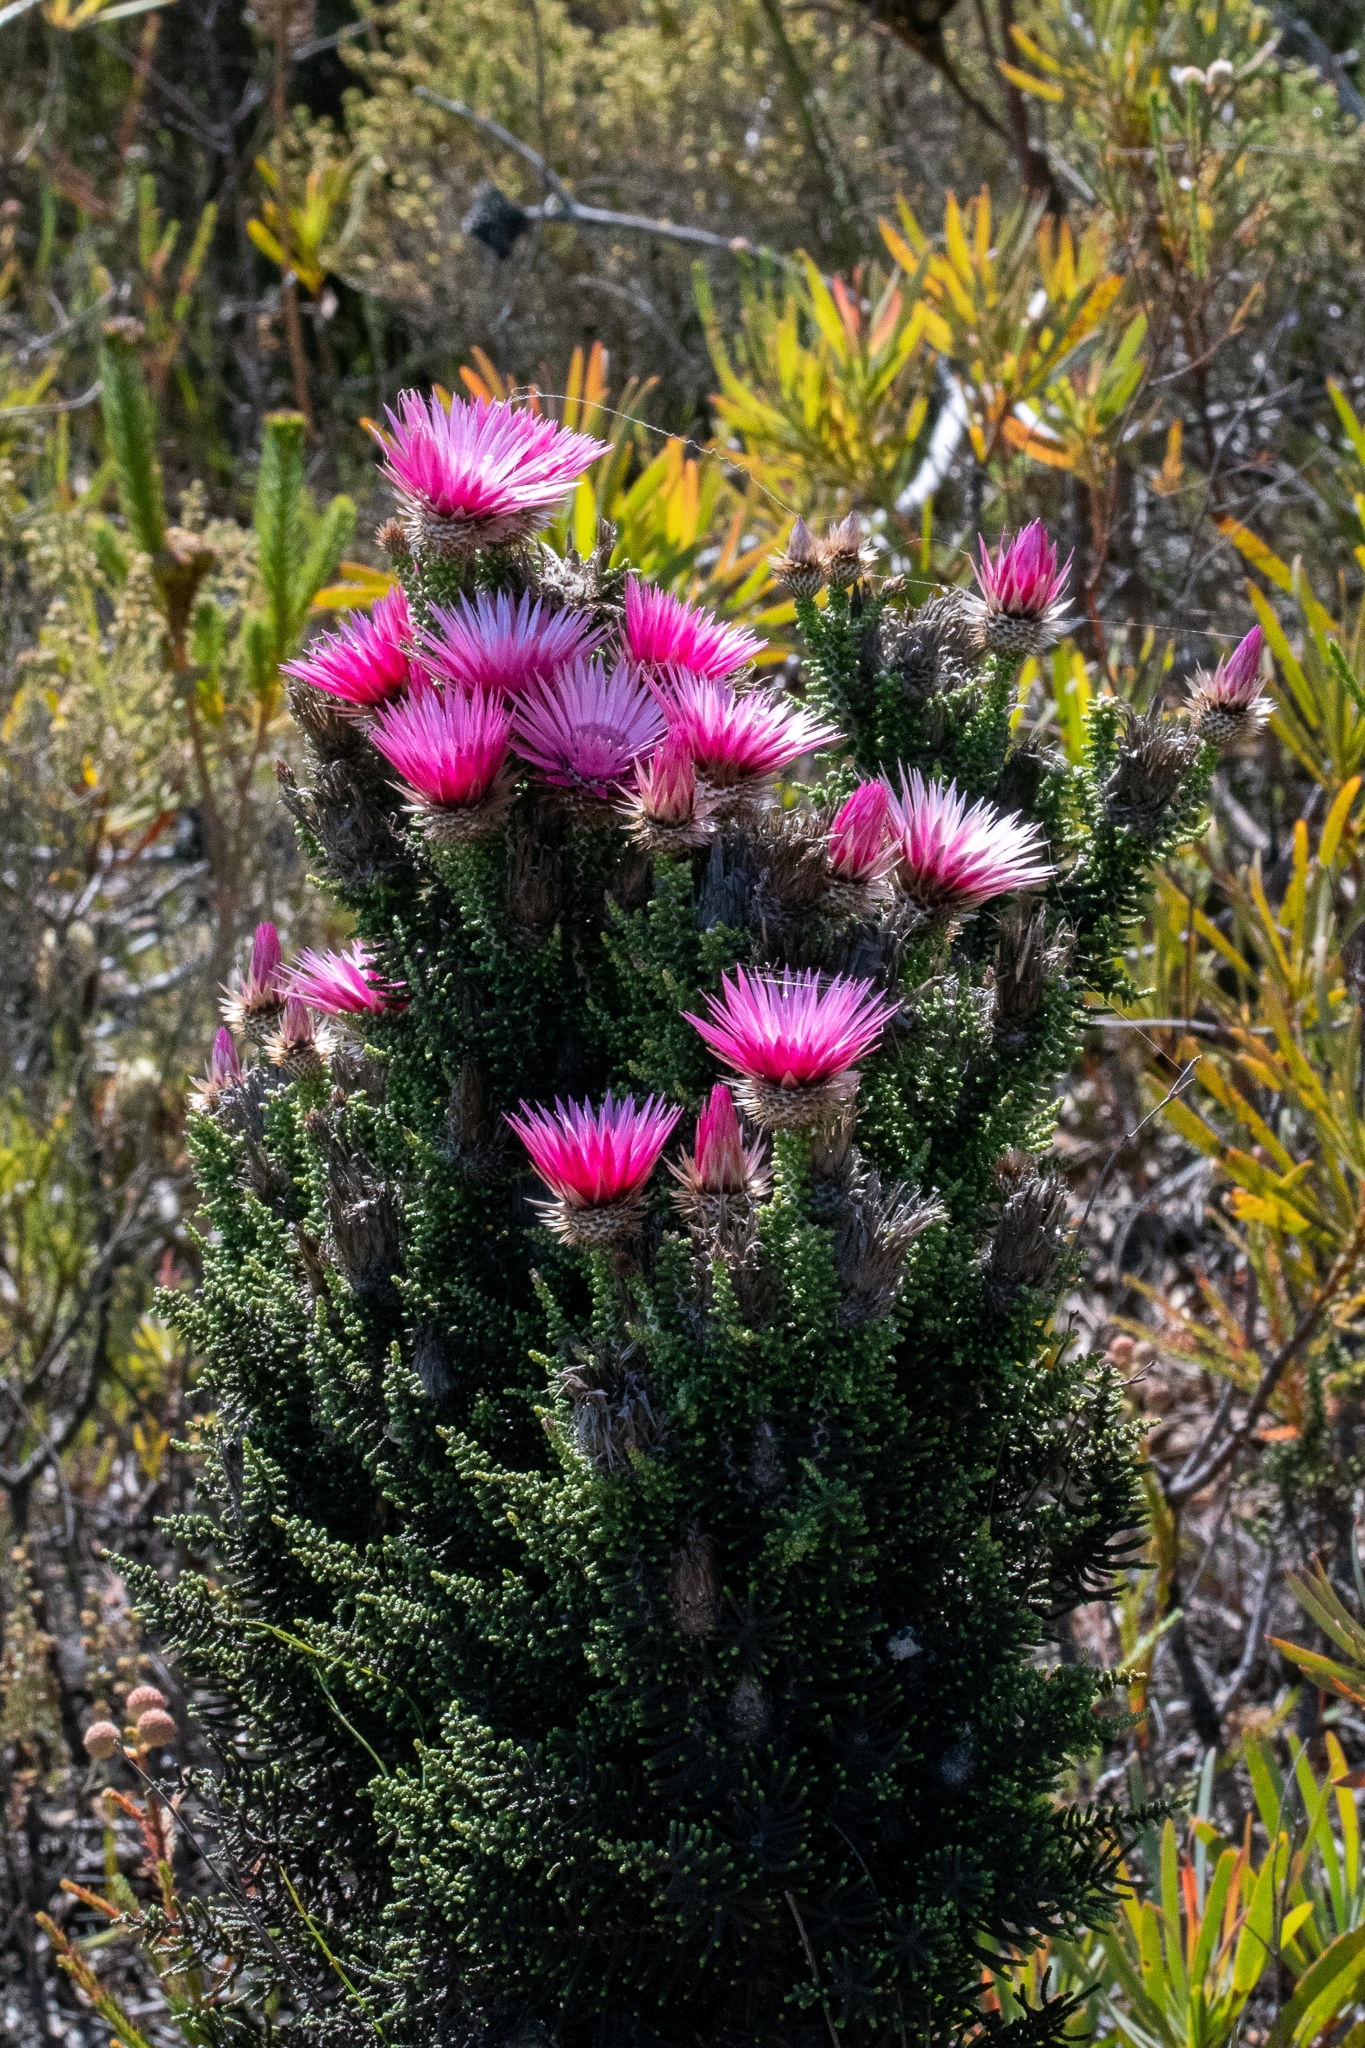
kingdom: Plantae
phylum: Tracheophyta
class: Magnoliopsida
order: Asterales
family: Asteraceae
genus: Phaenocoma
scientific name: Phaenocoma prolifera
